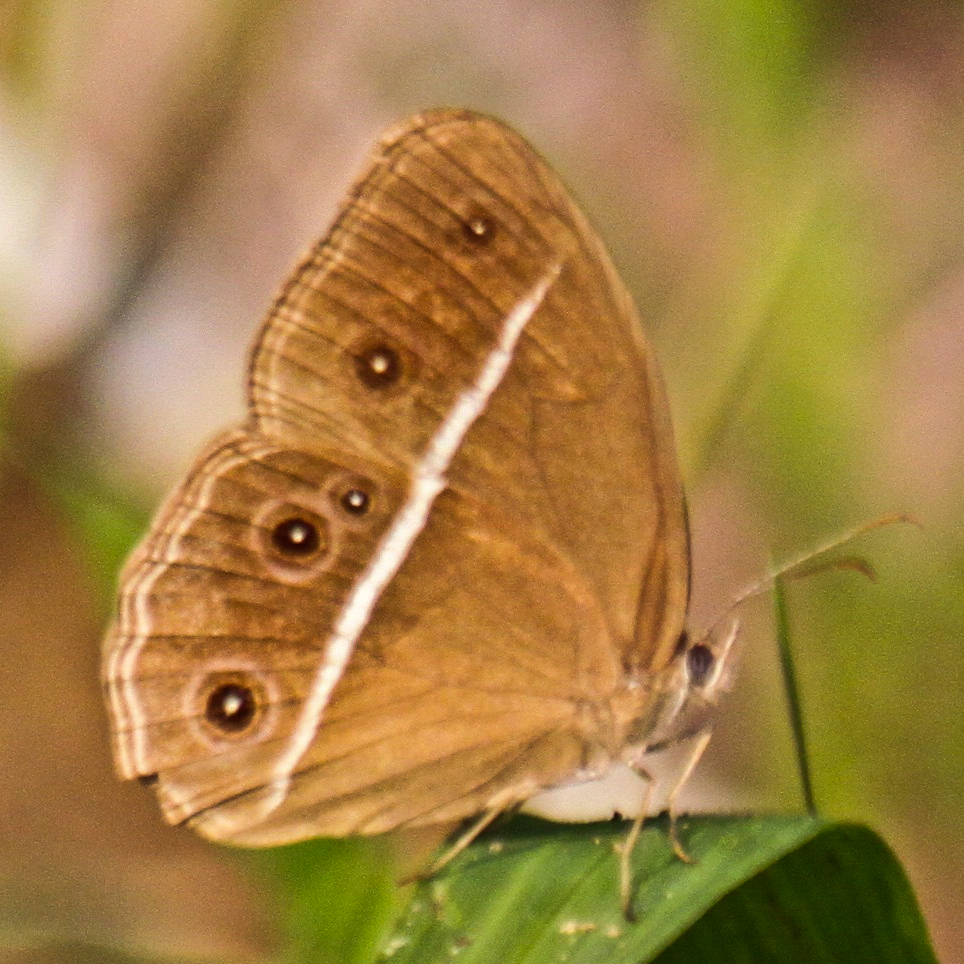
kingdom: Animalia
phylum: Arthropoda
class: Insecta
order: Lepidoptera
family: Nymphalidae
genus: Orsotriaena
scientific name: Orsotriaena medus
